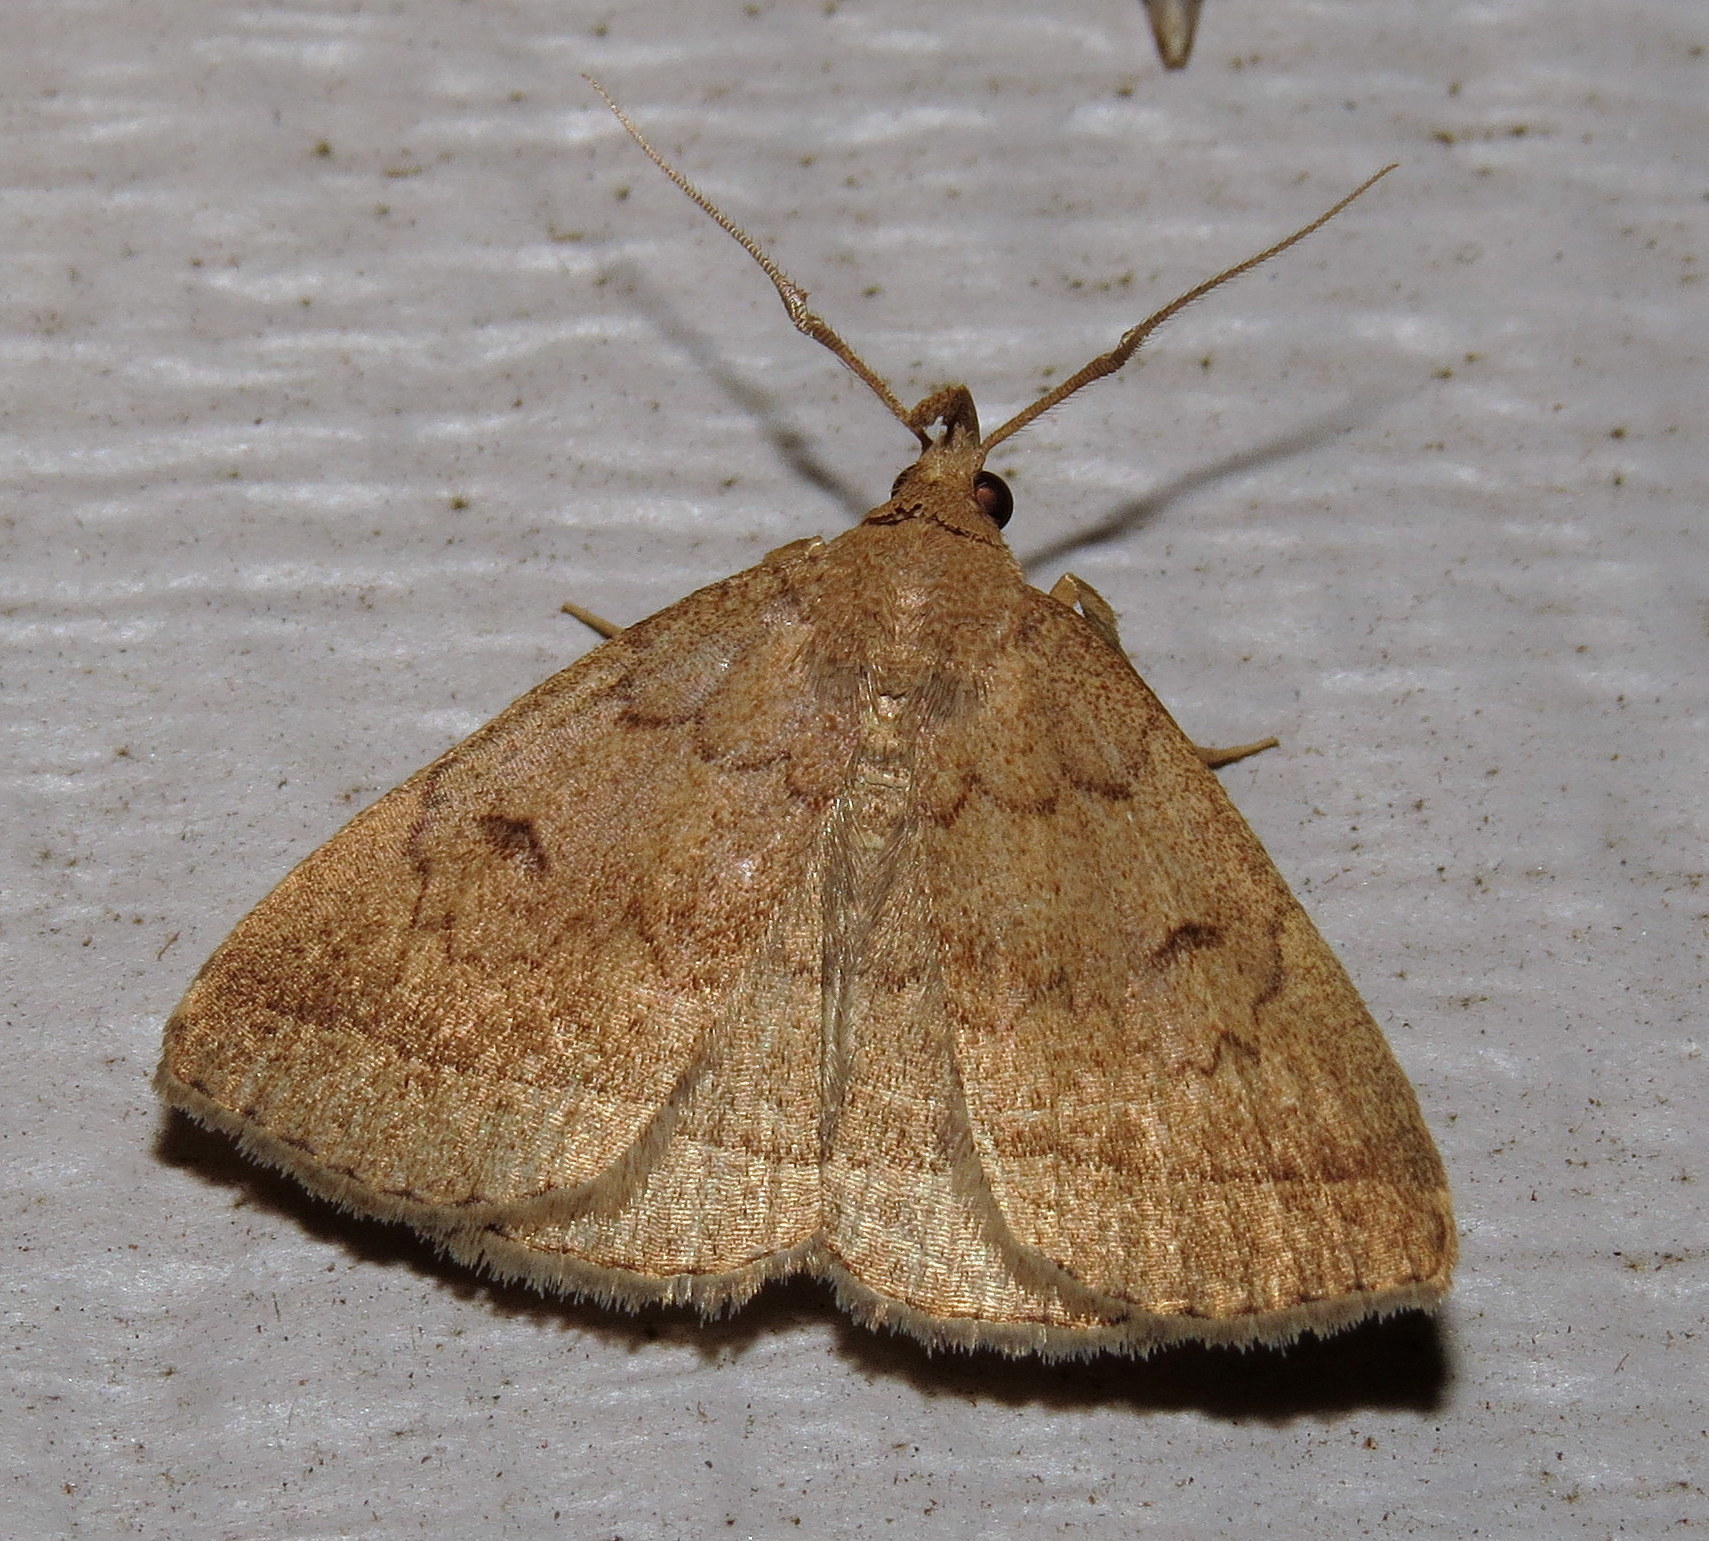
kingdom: Animalia
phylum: Arthropoda
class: Insecta
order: Lepidoptera
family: Erebidae
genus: Zanclognatha
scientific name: Zanclognatha jacchusalis
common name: Yellowish zanclognatha
